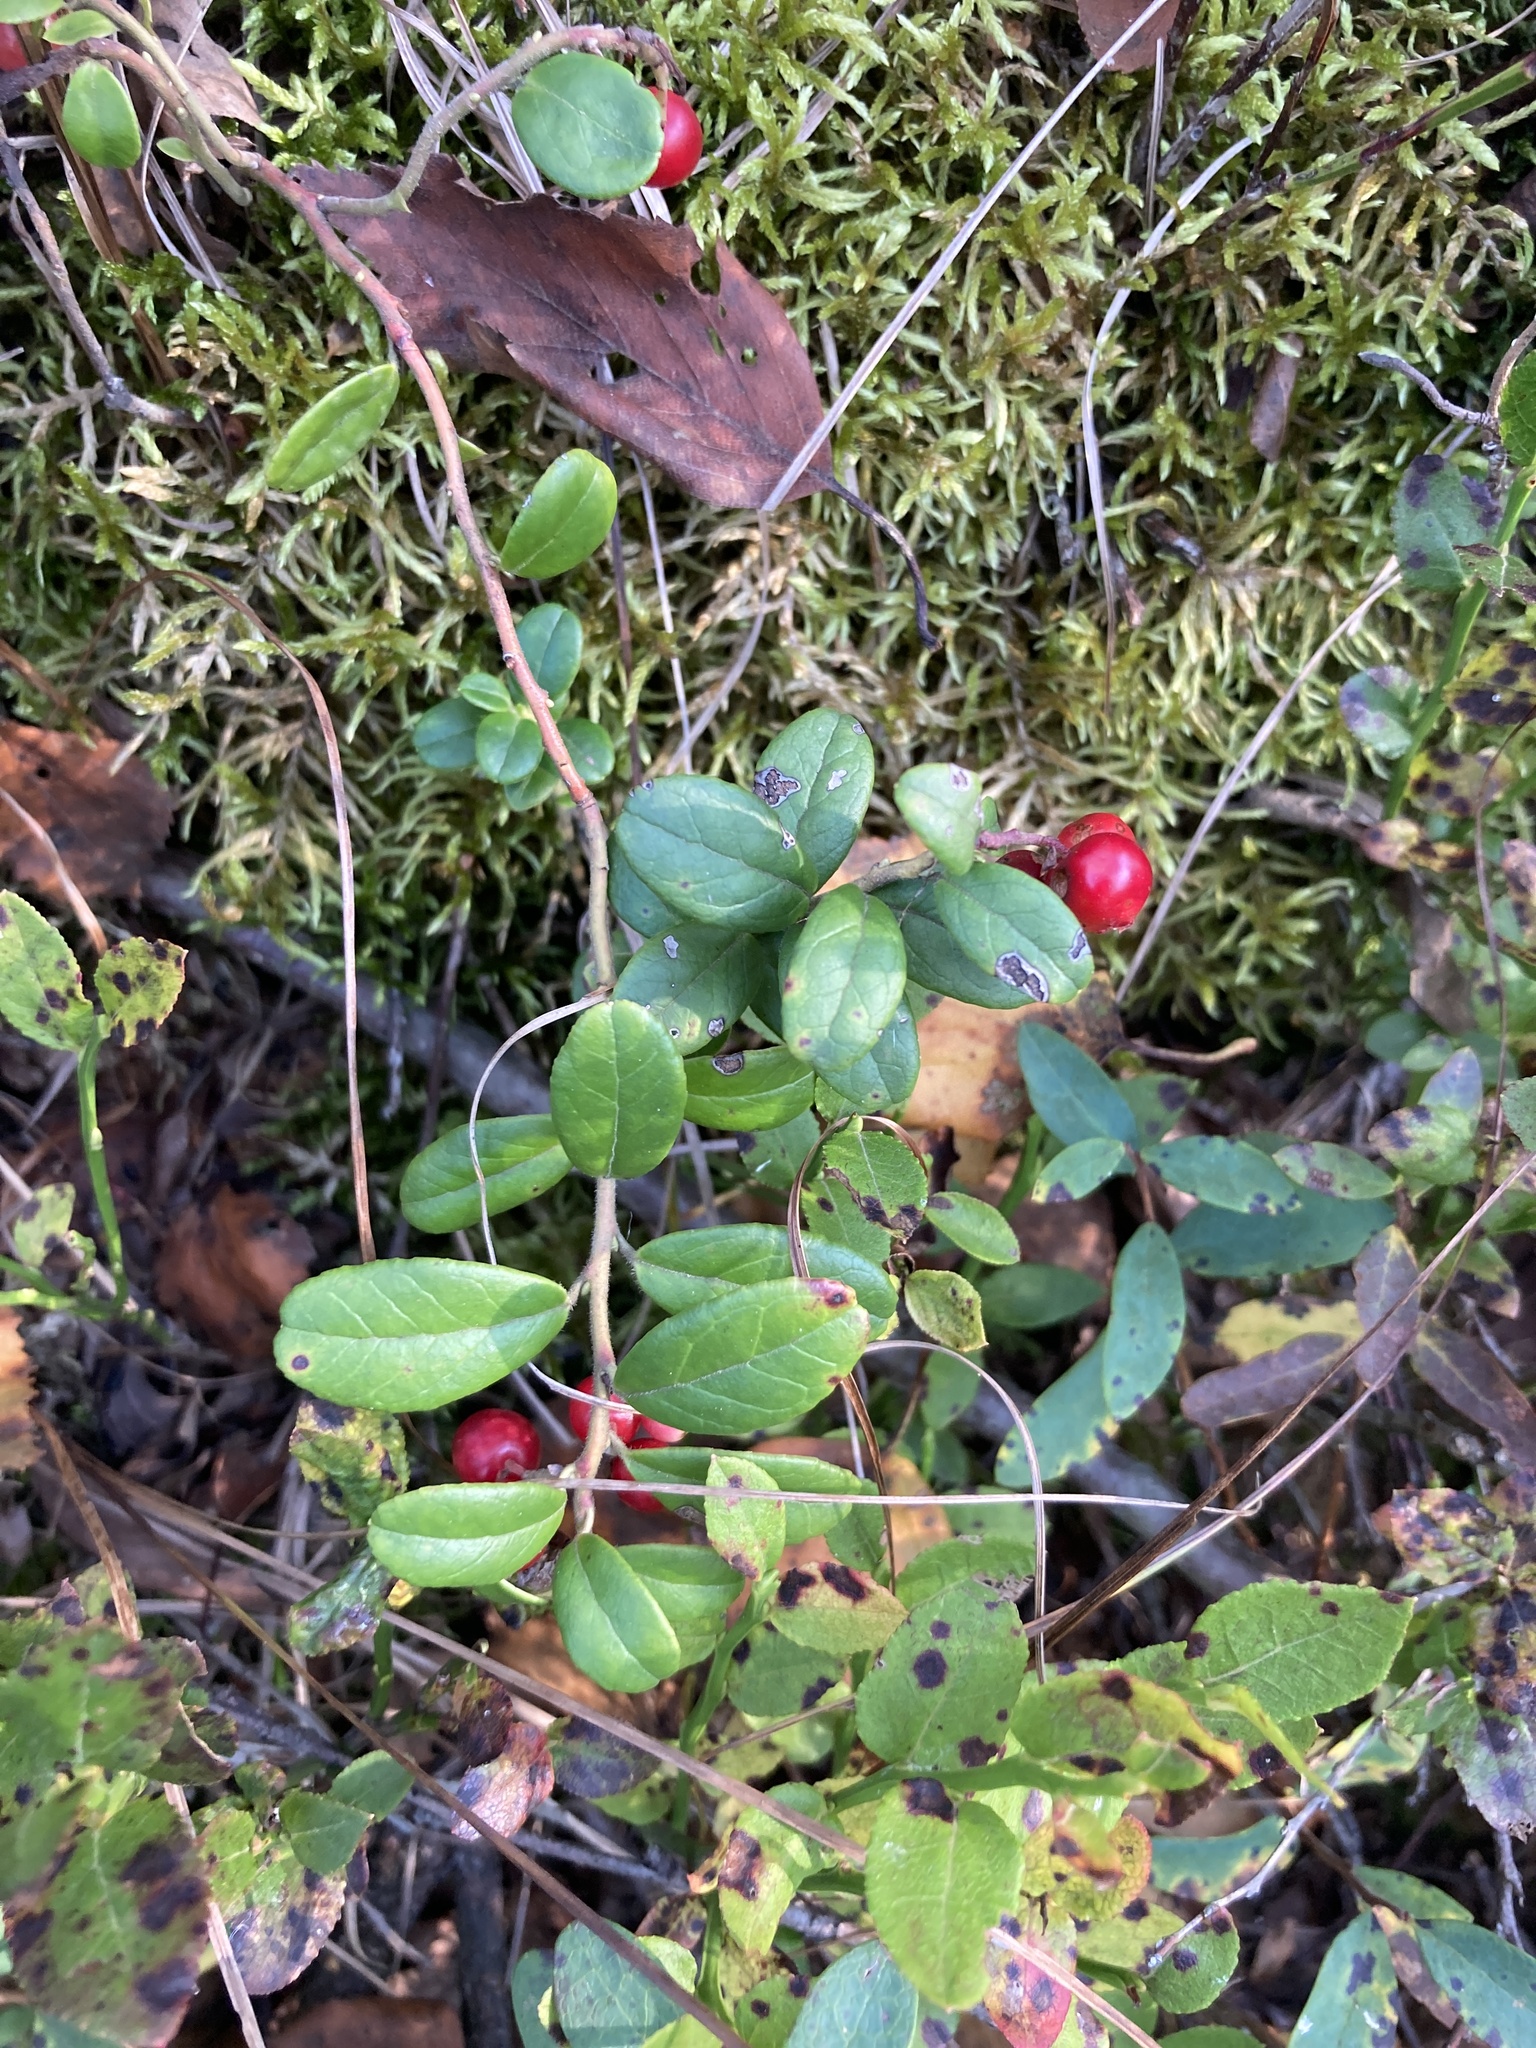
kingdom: Plantae
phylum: Tracheophyta
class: Magnoliopsida
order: Ericales
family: Ericaceae
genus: Vaccinium
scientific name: Vaccinium vitis-idaea
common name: Cowberry
